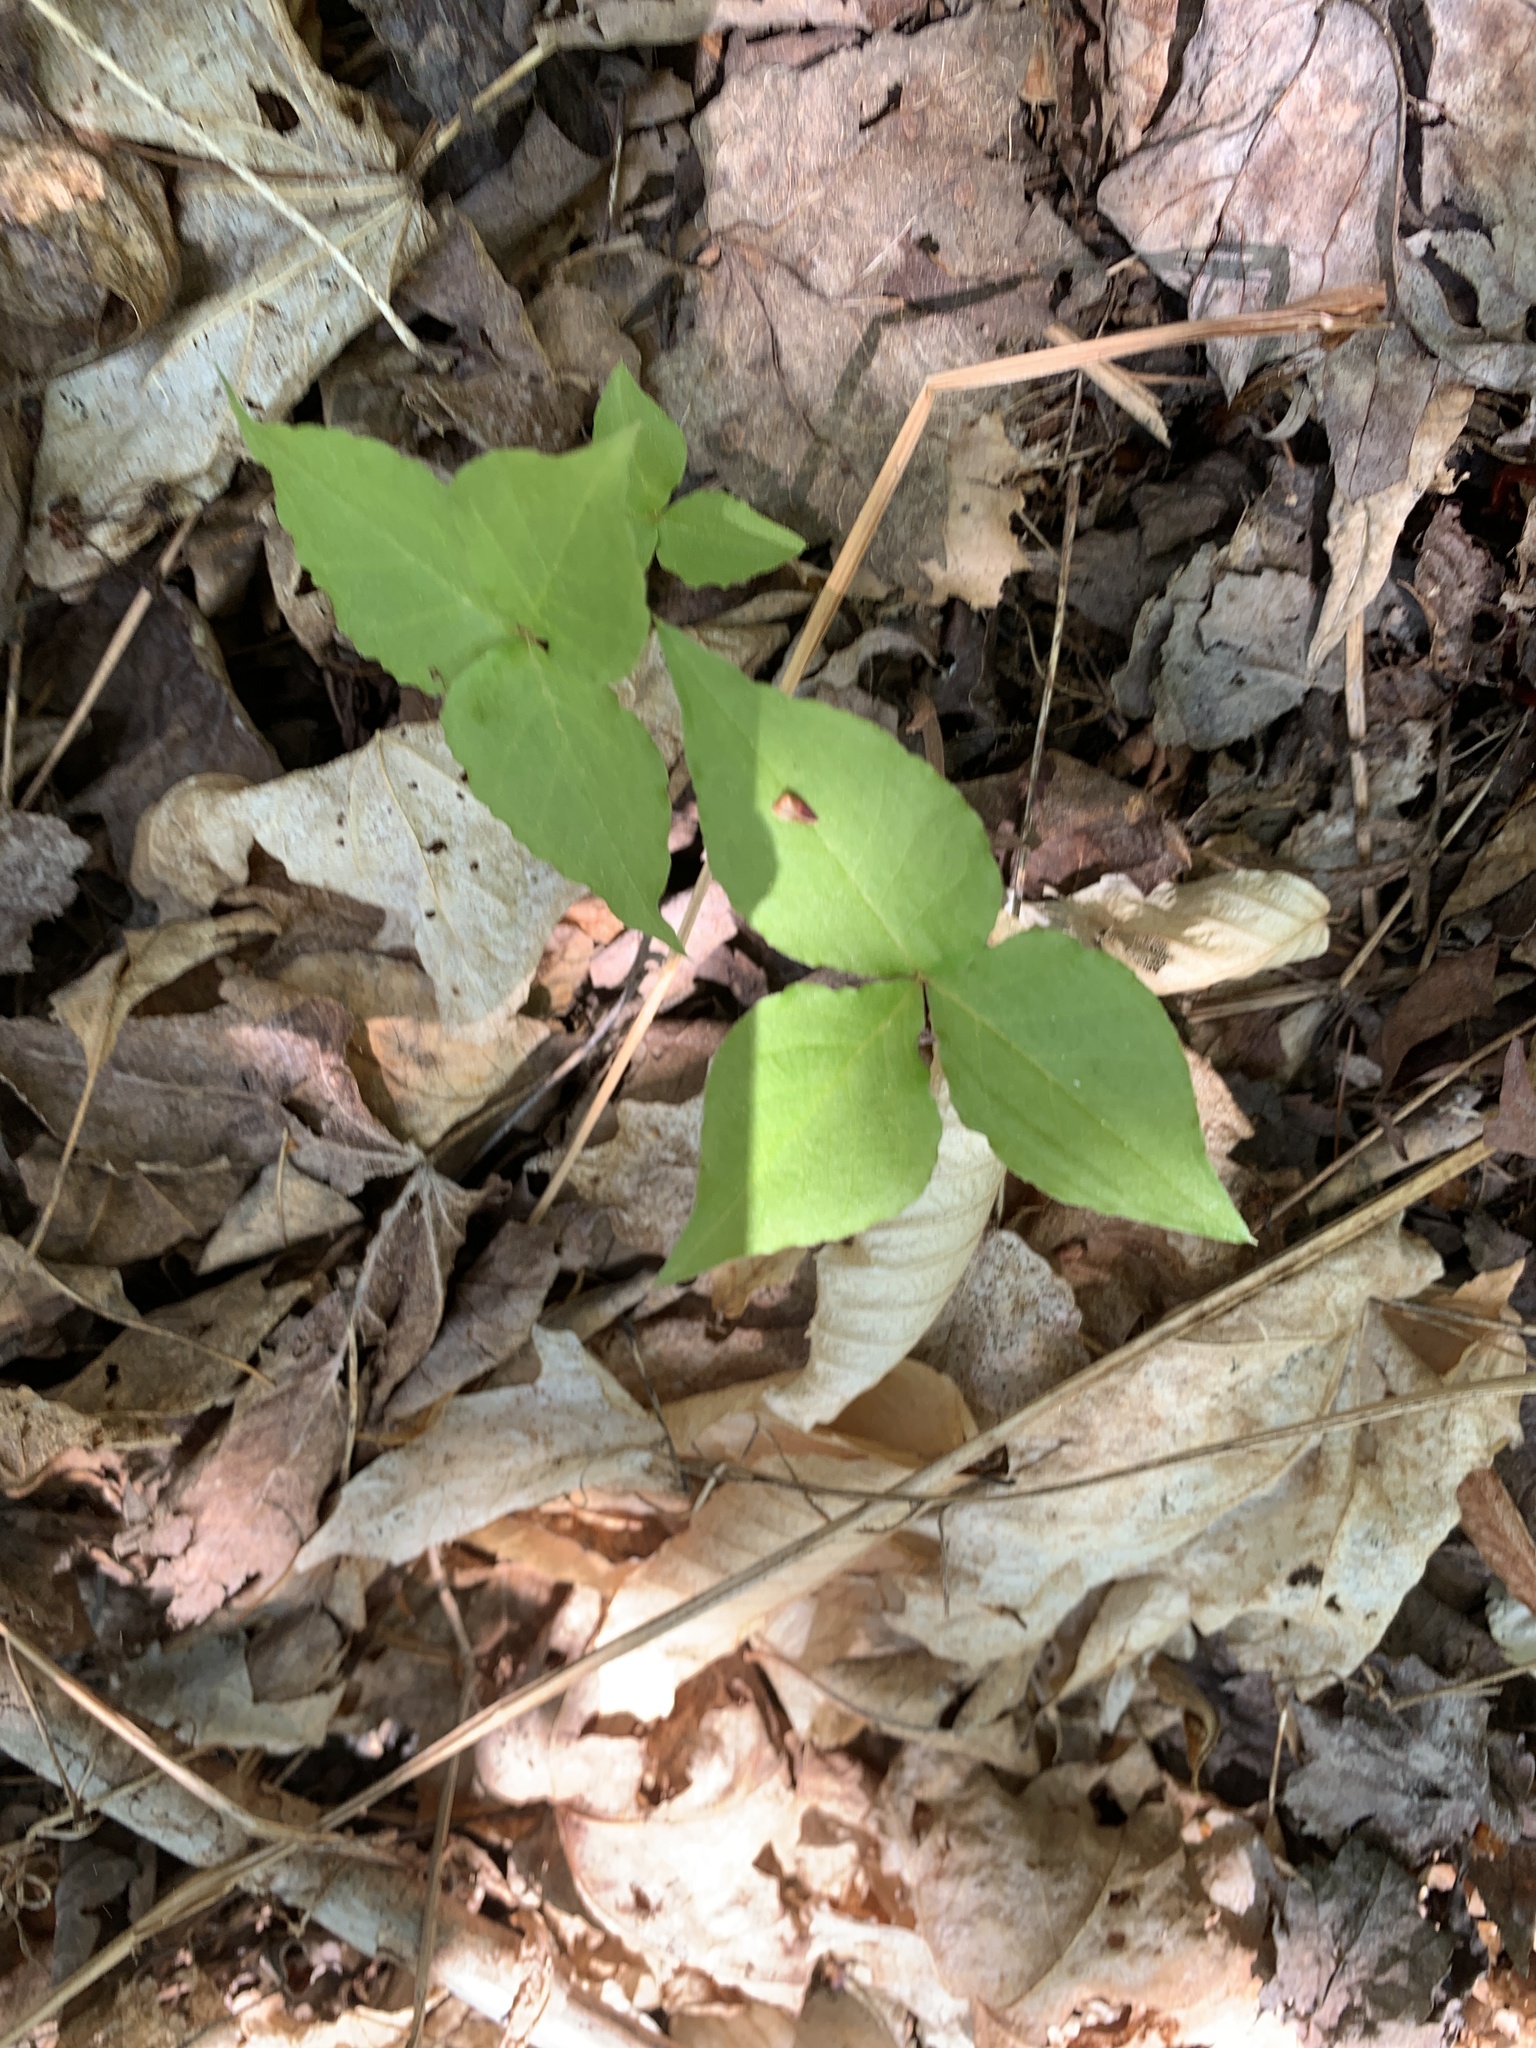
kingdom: Plantae
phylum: Tracheophyta
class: Liliopsida
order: Alismatales
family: Araceae
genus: Arisaema
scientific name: Arisaema triphyllum
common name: Jack-in-the-pulpit
